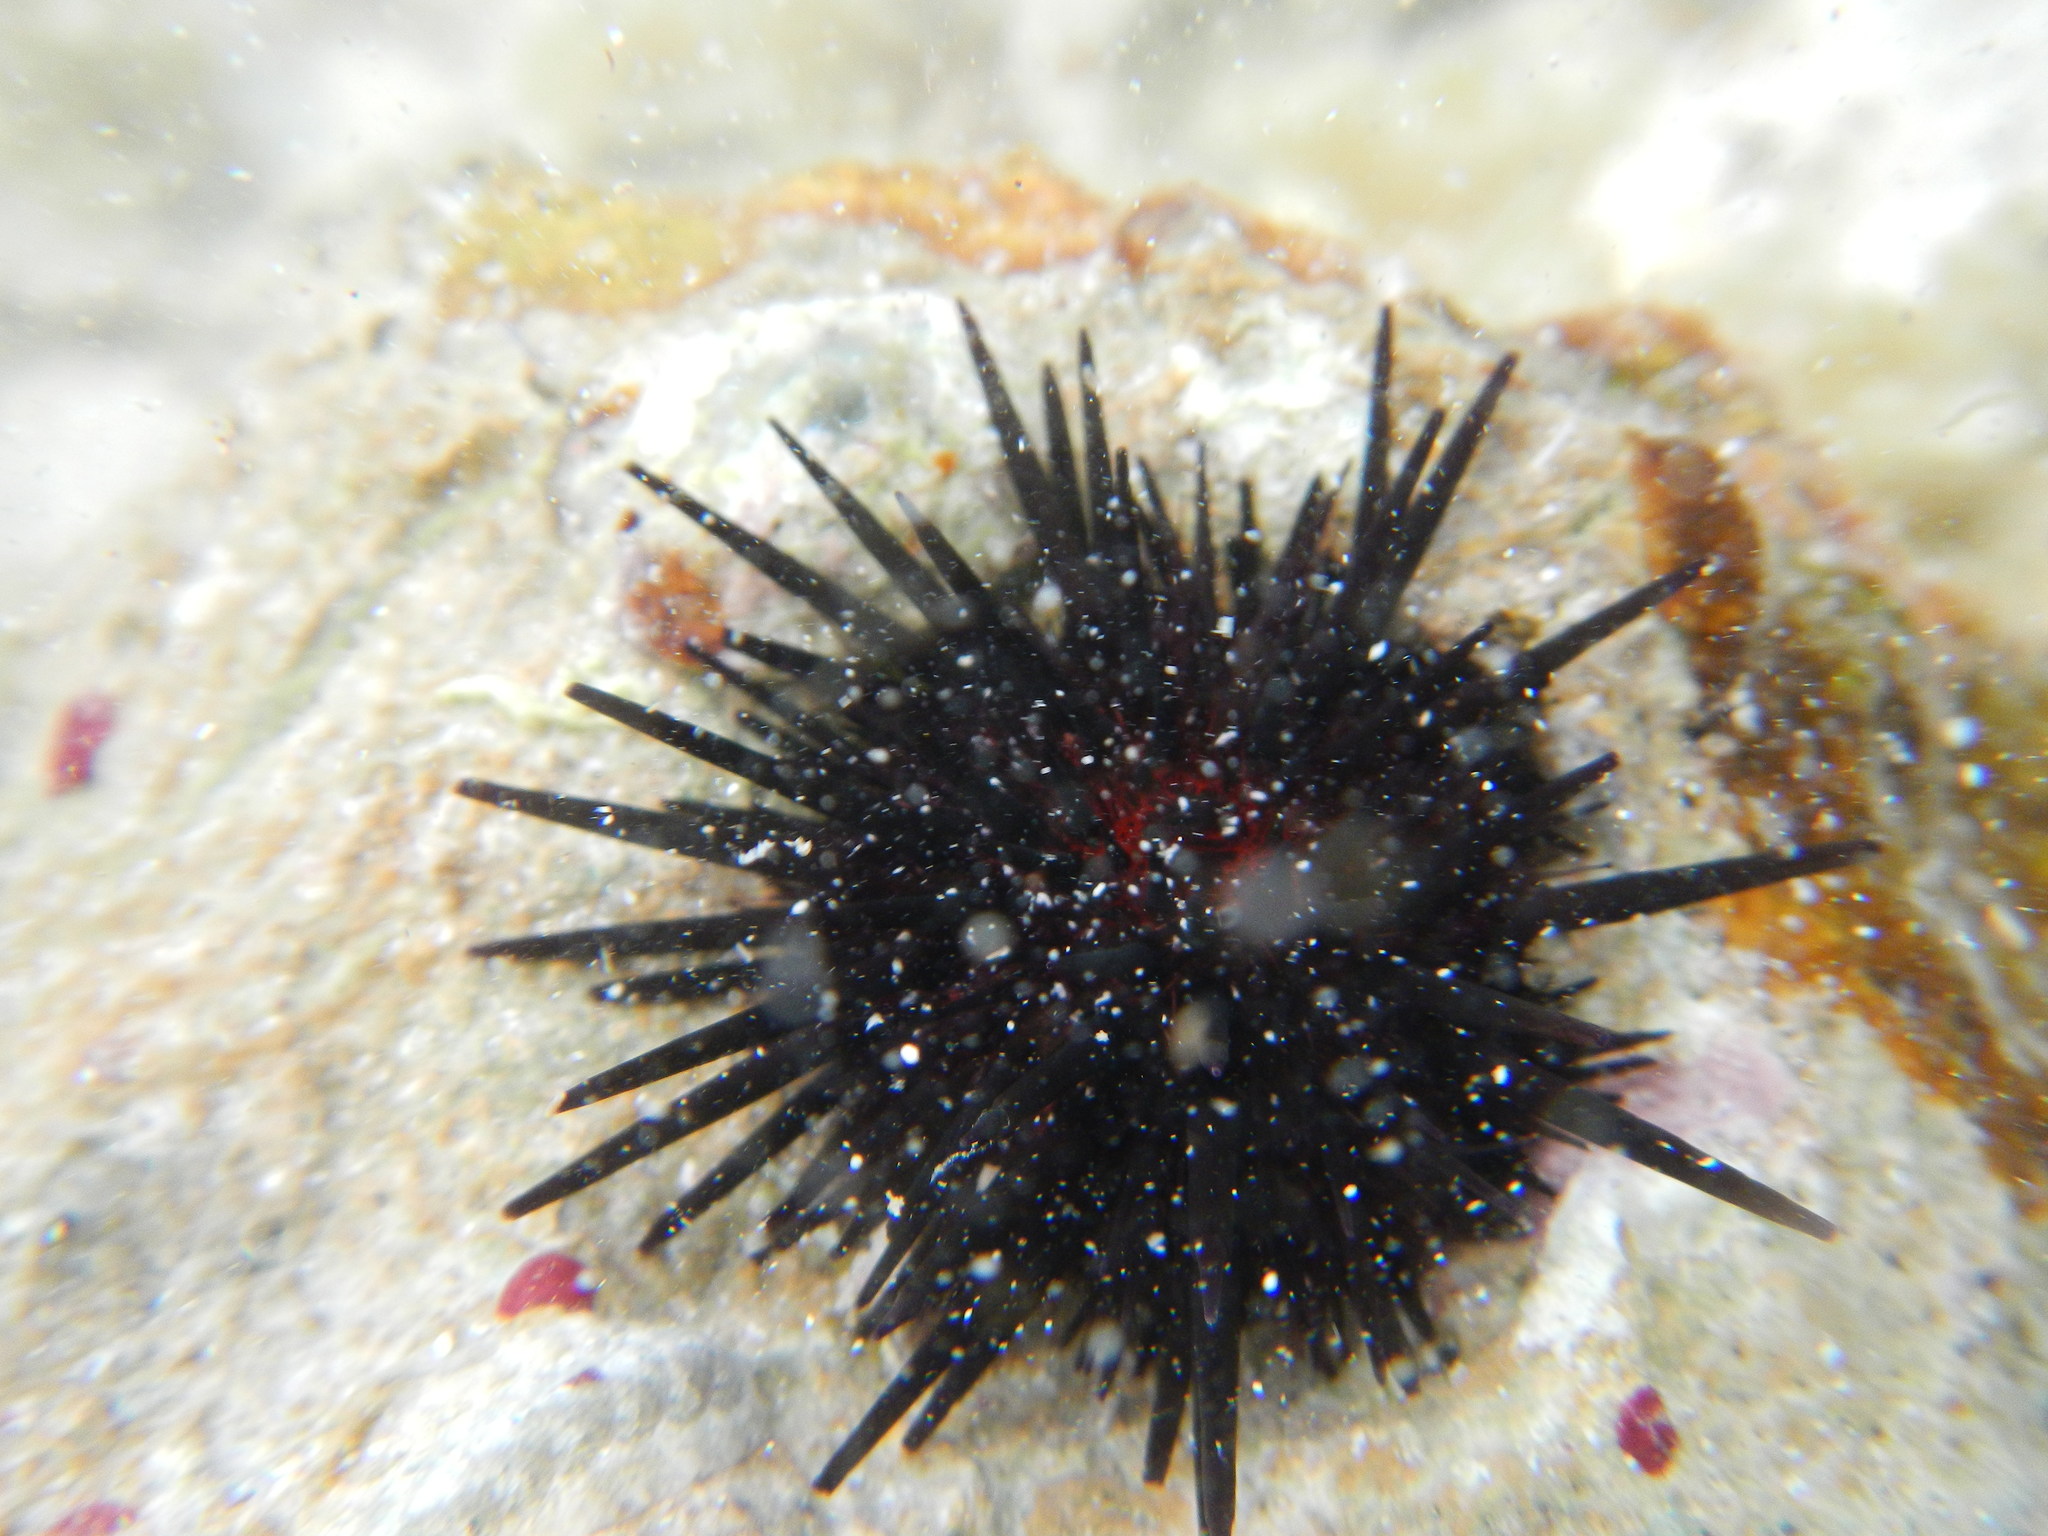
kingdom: Animalia
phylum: Echinodermata
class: Echinoidea
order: Camarodonta
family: Echinometridae
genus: Echinometra
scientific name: Echinometra lucunter
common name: Rock urchin
